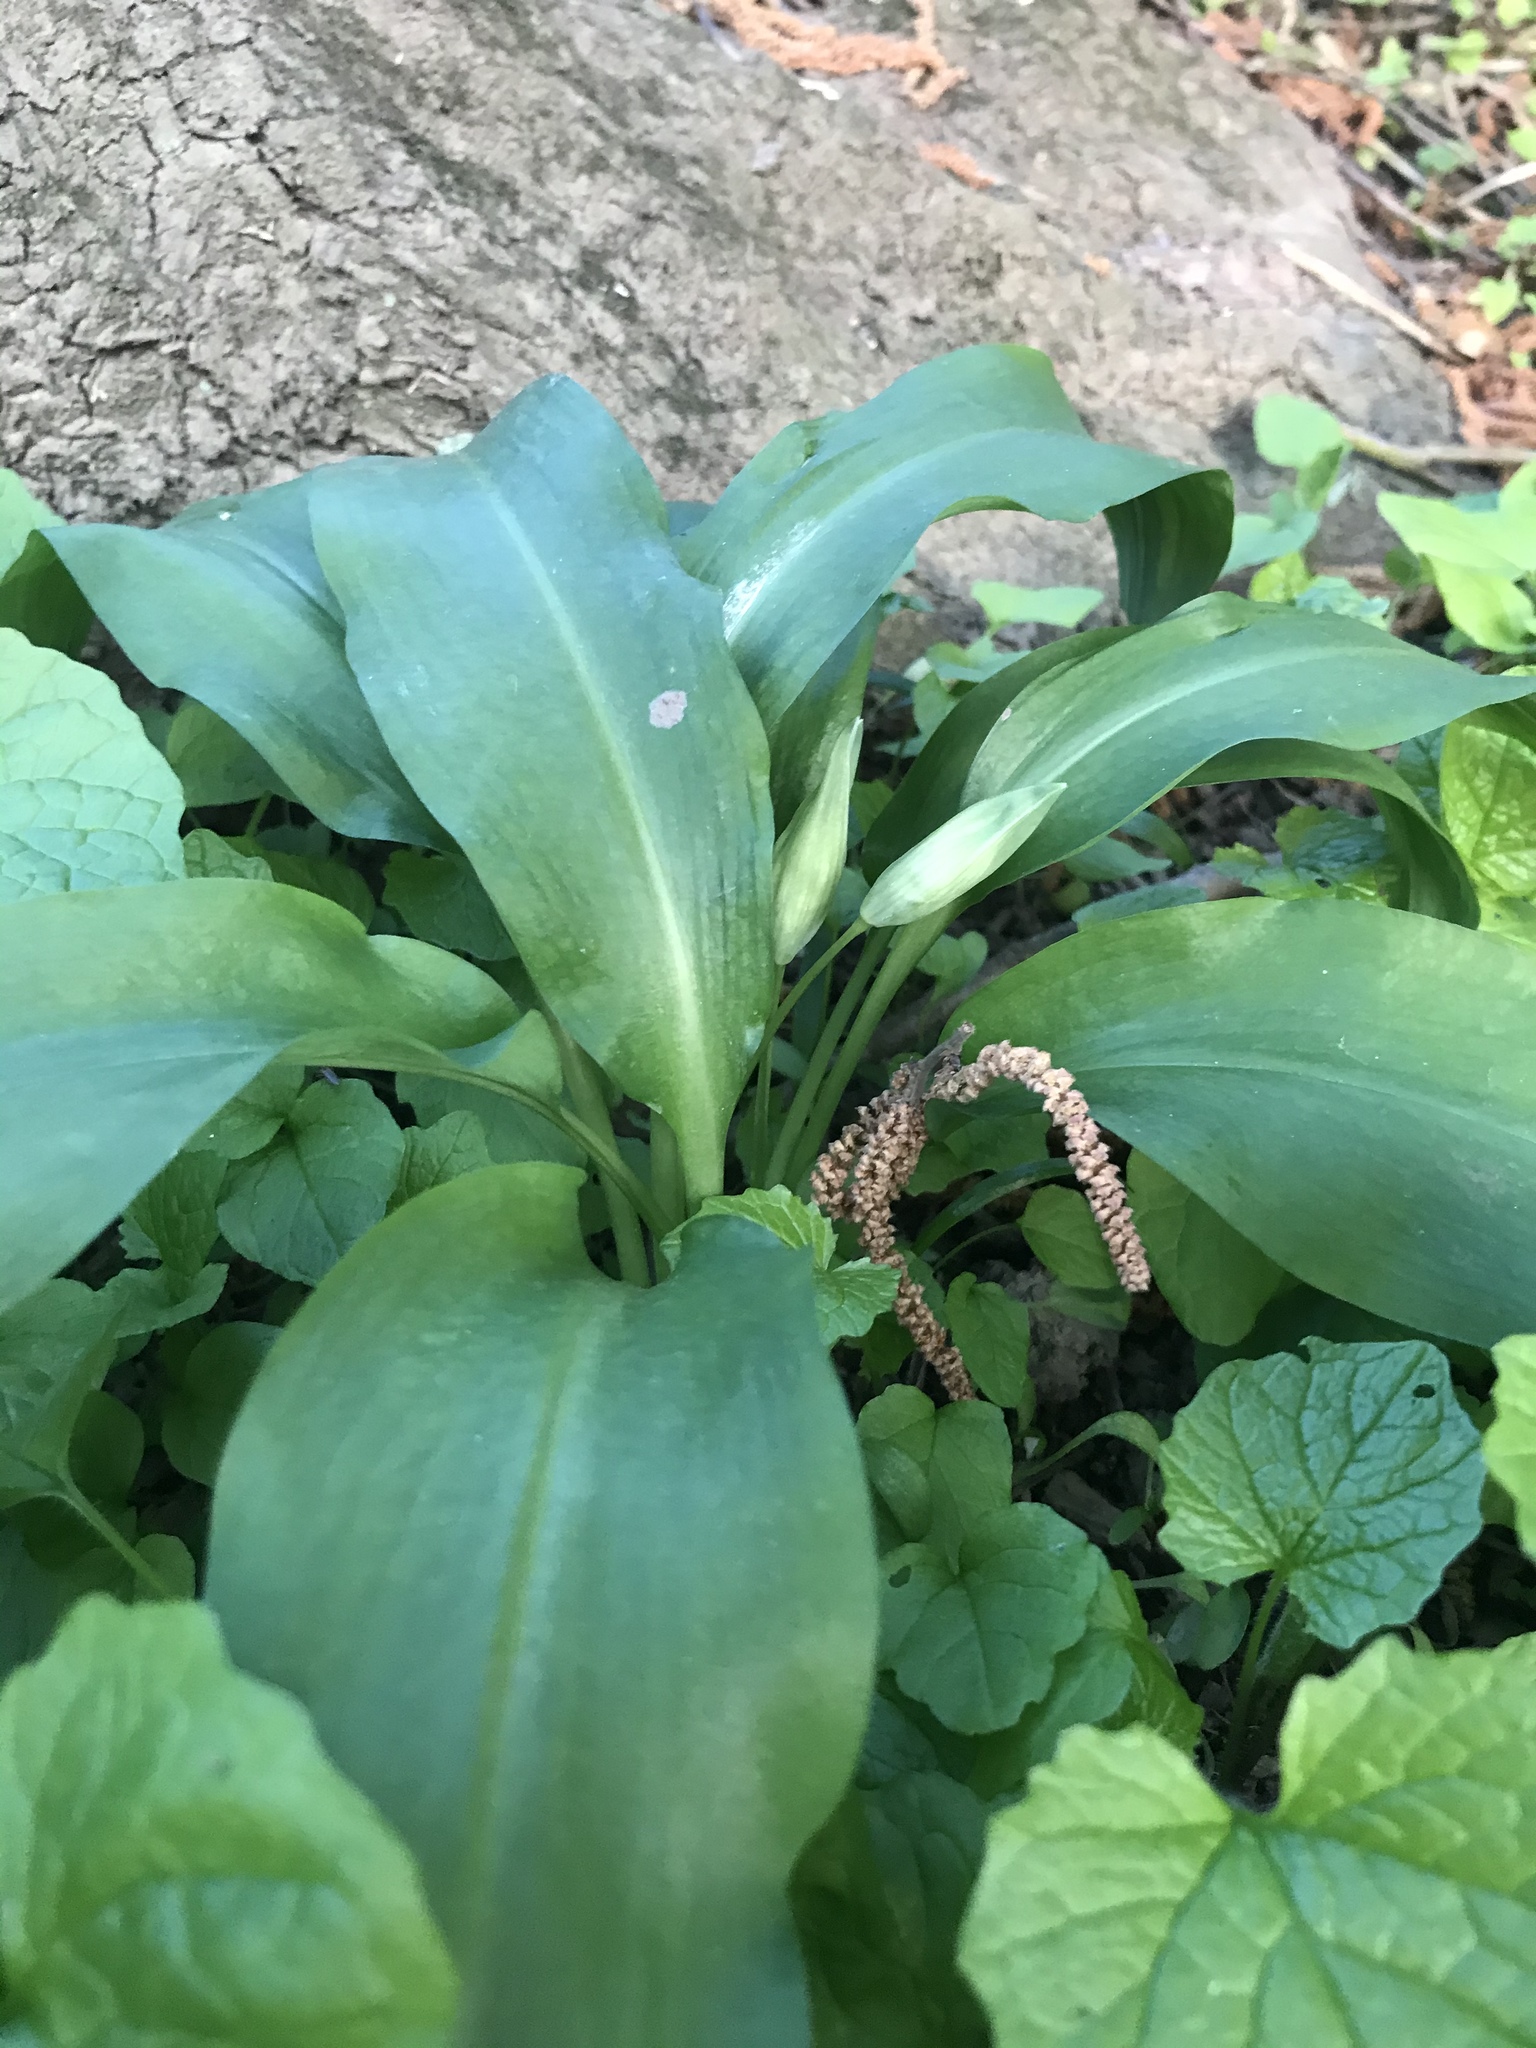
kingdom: Plantae
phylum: Tracheophyta
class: Liliopsida
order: Asparagales
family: Amaryllidaceae
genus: Allium
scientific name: Allium ursinum
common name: Ramsons
